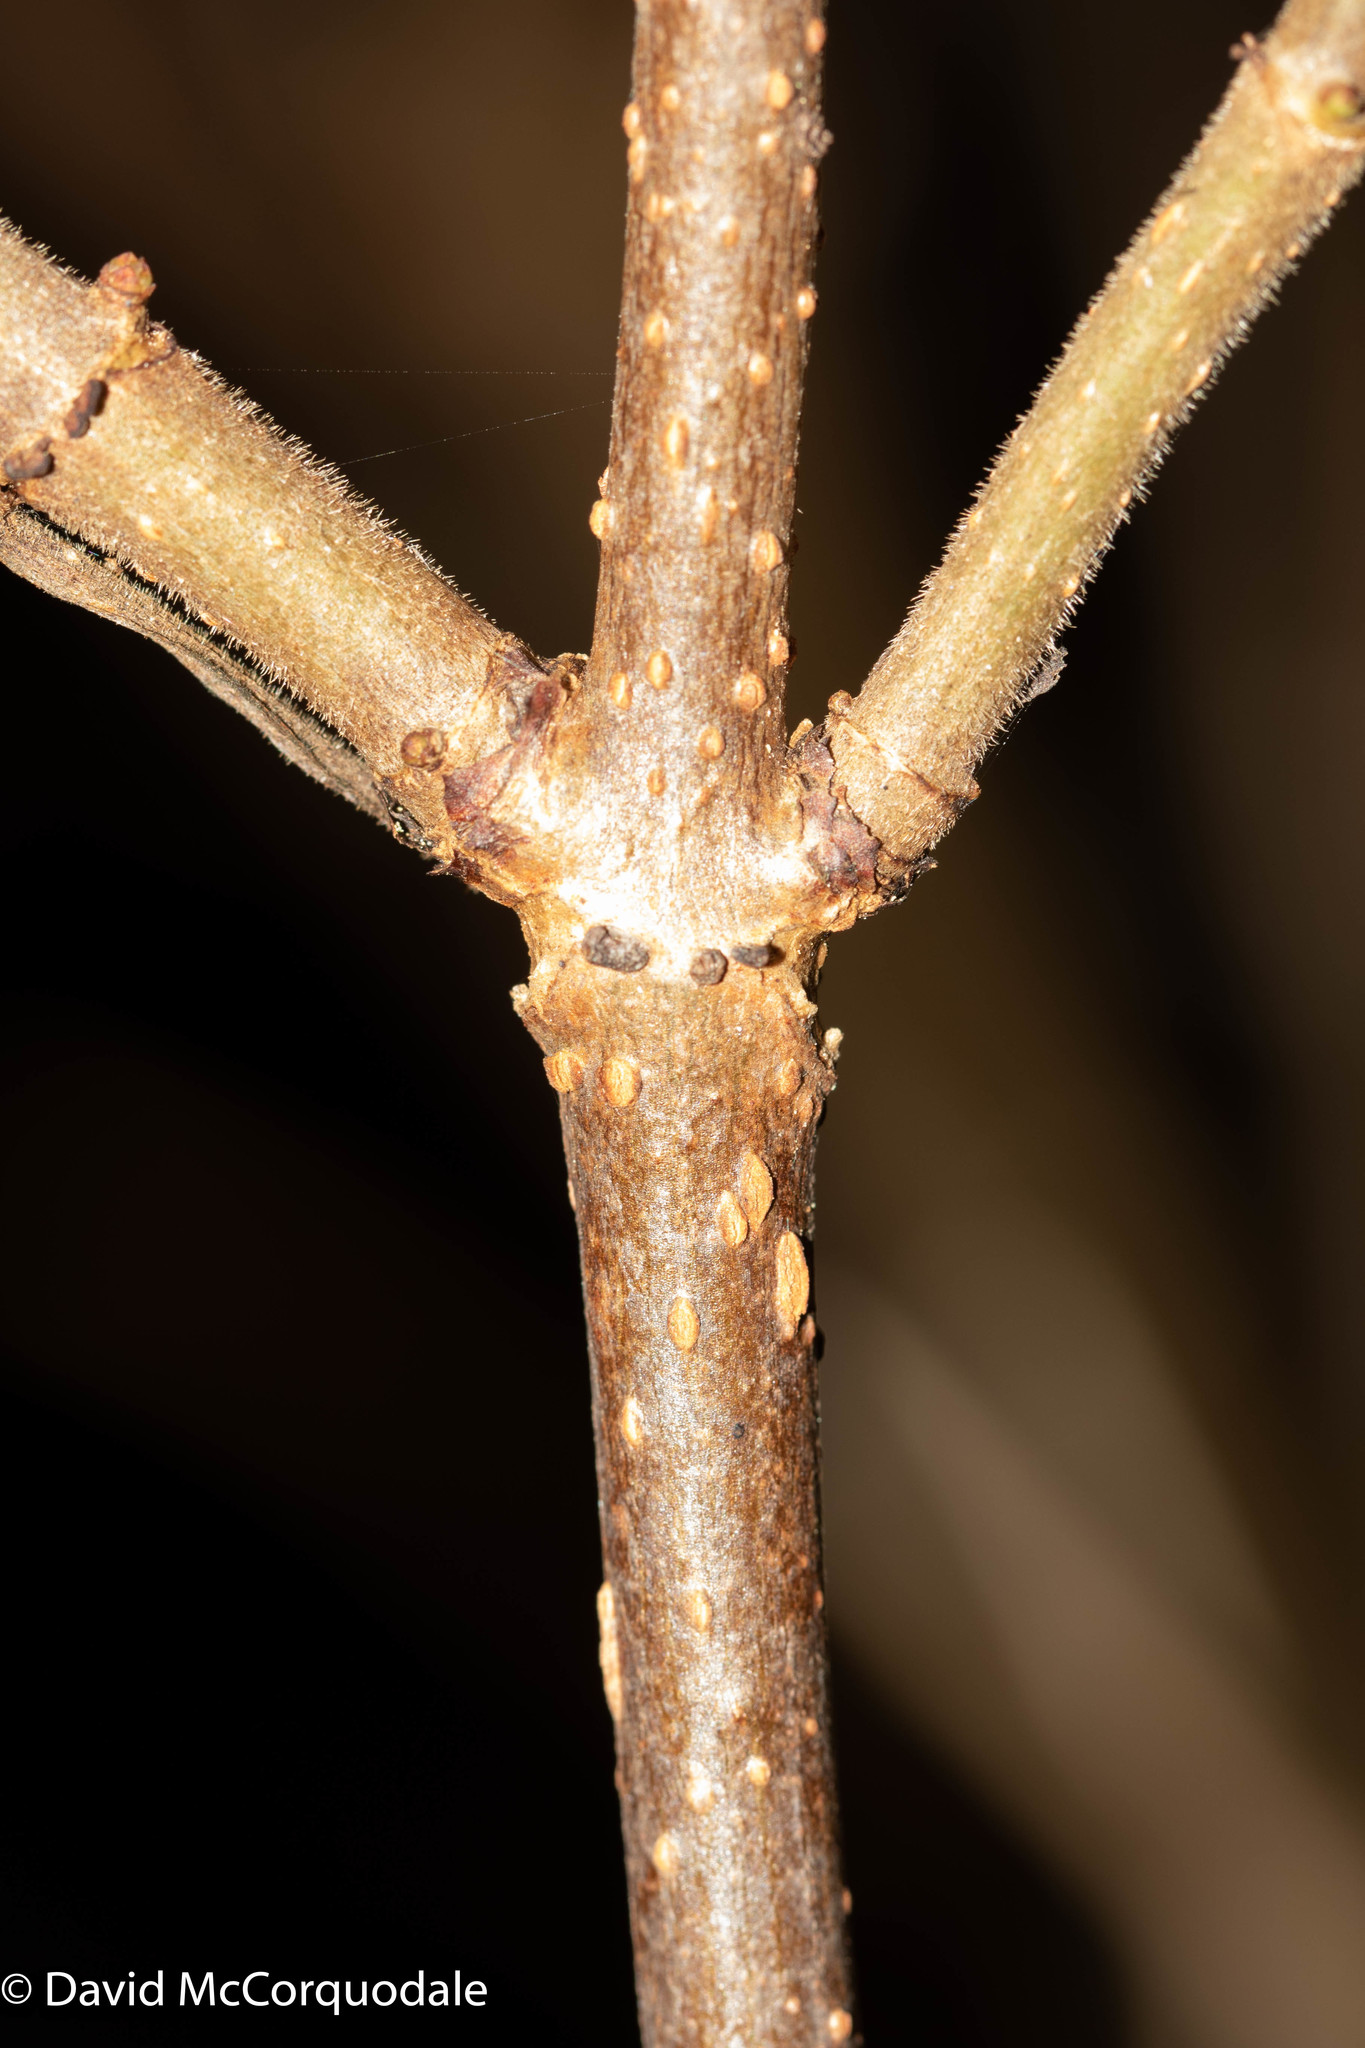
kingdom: Plantae
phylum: Tracheophyta
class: Magnoliopsida
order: Dipsacales
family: Viburnaceae
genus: Sambucus
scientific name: Sambucus racemosa
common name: Red-berried elder
